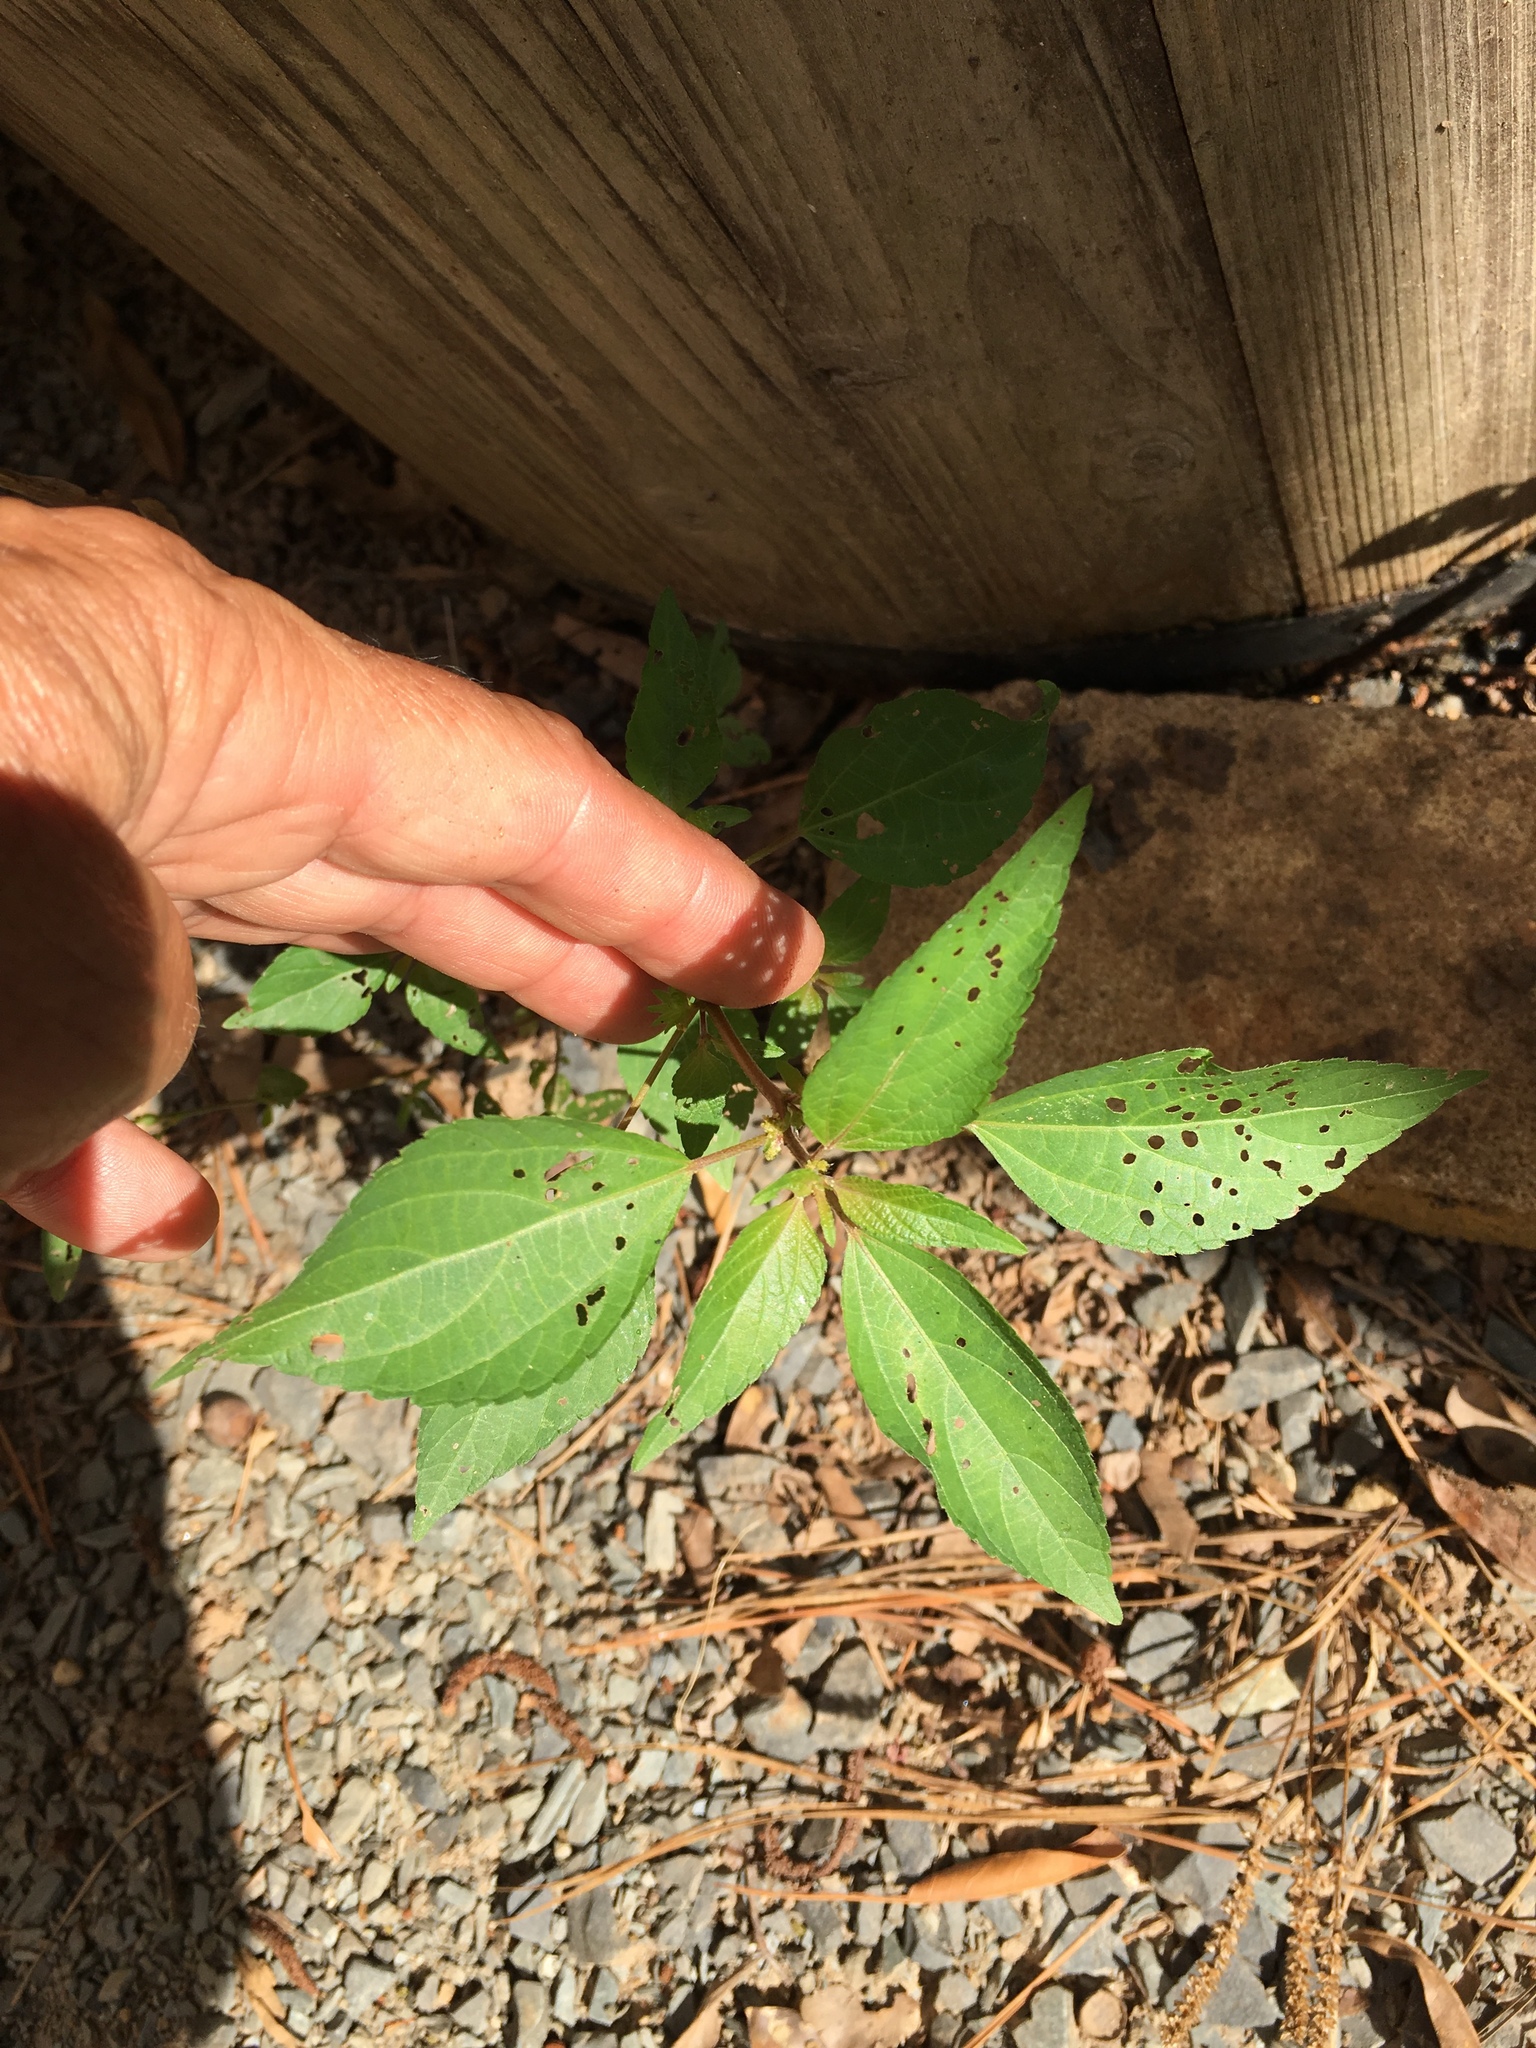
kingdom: Plantae
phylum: Tracheophyta
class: Magnoliopsida
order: Malpighiales
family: Euphorbiaceae
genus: Acalypha
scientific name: Acalypha rhomboidea
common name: Rhombic copperleaf
